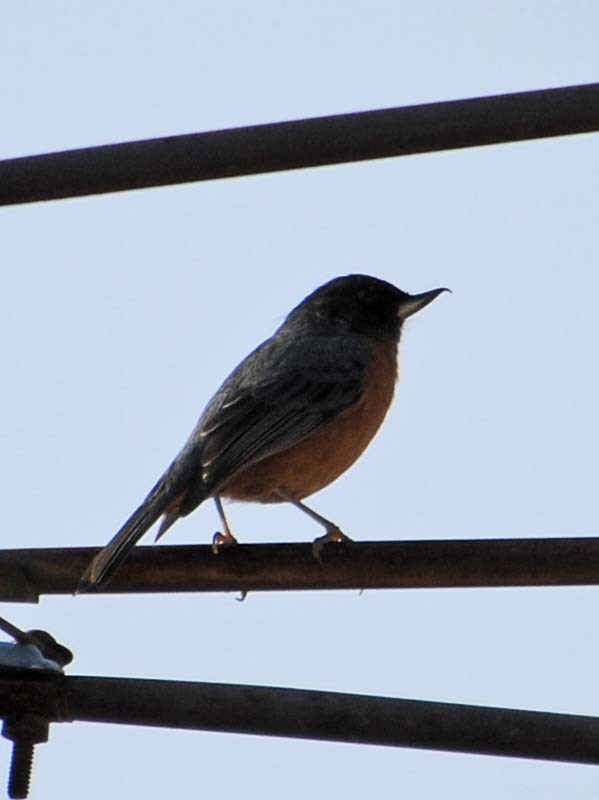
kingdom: Animalia
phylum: Chordata
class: Aves
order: Passeriformes
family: Thraupidae
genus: Diglossa
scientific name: Diglossa baritula
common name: Cinnamon-bellied flowerpiercer
